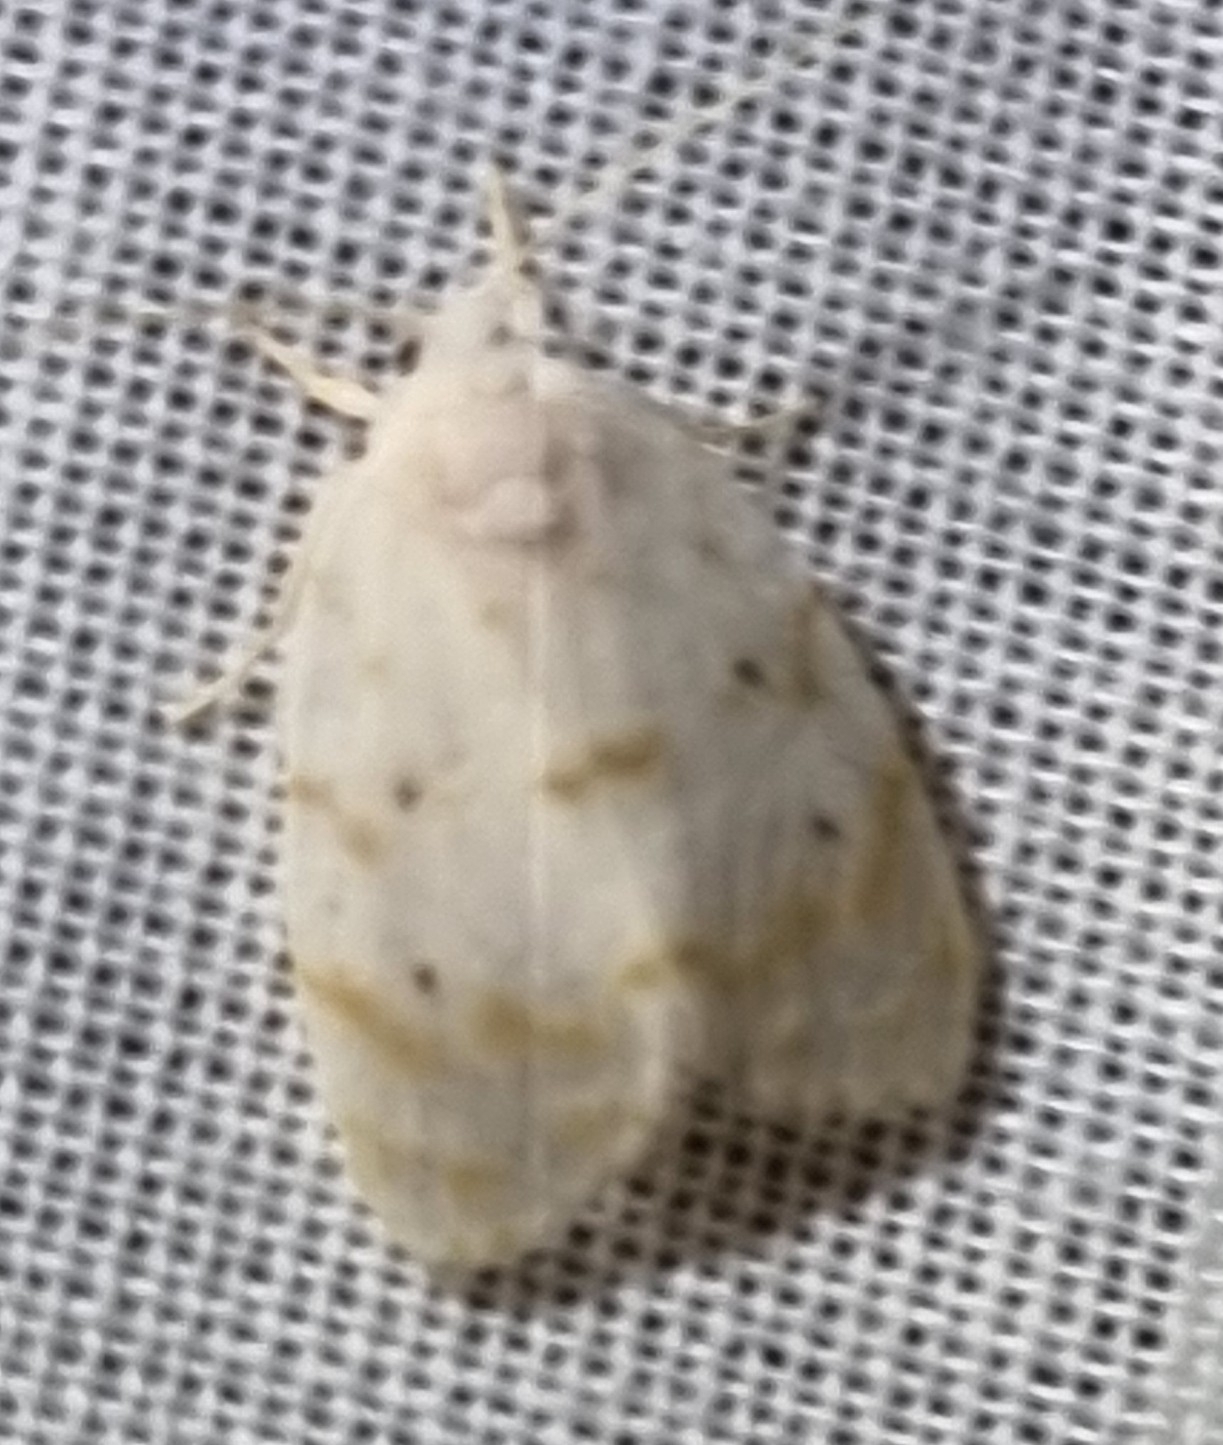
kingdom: Animalia
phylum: Arthropoda
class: Insecta
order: Lepidoptera
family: Erebidae
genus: Schistophleps
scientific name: Schistophleps albida
